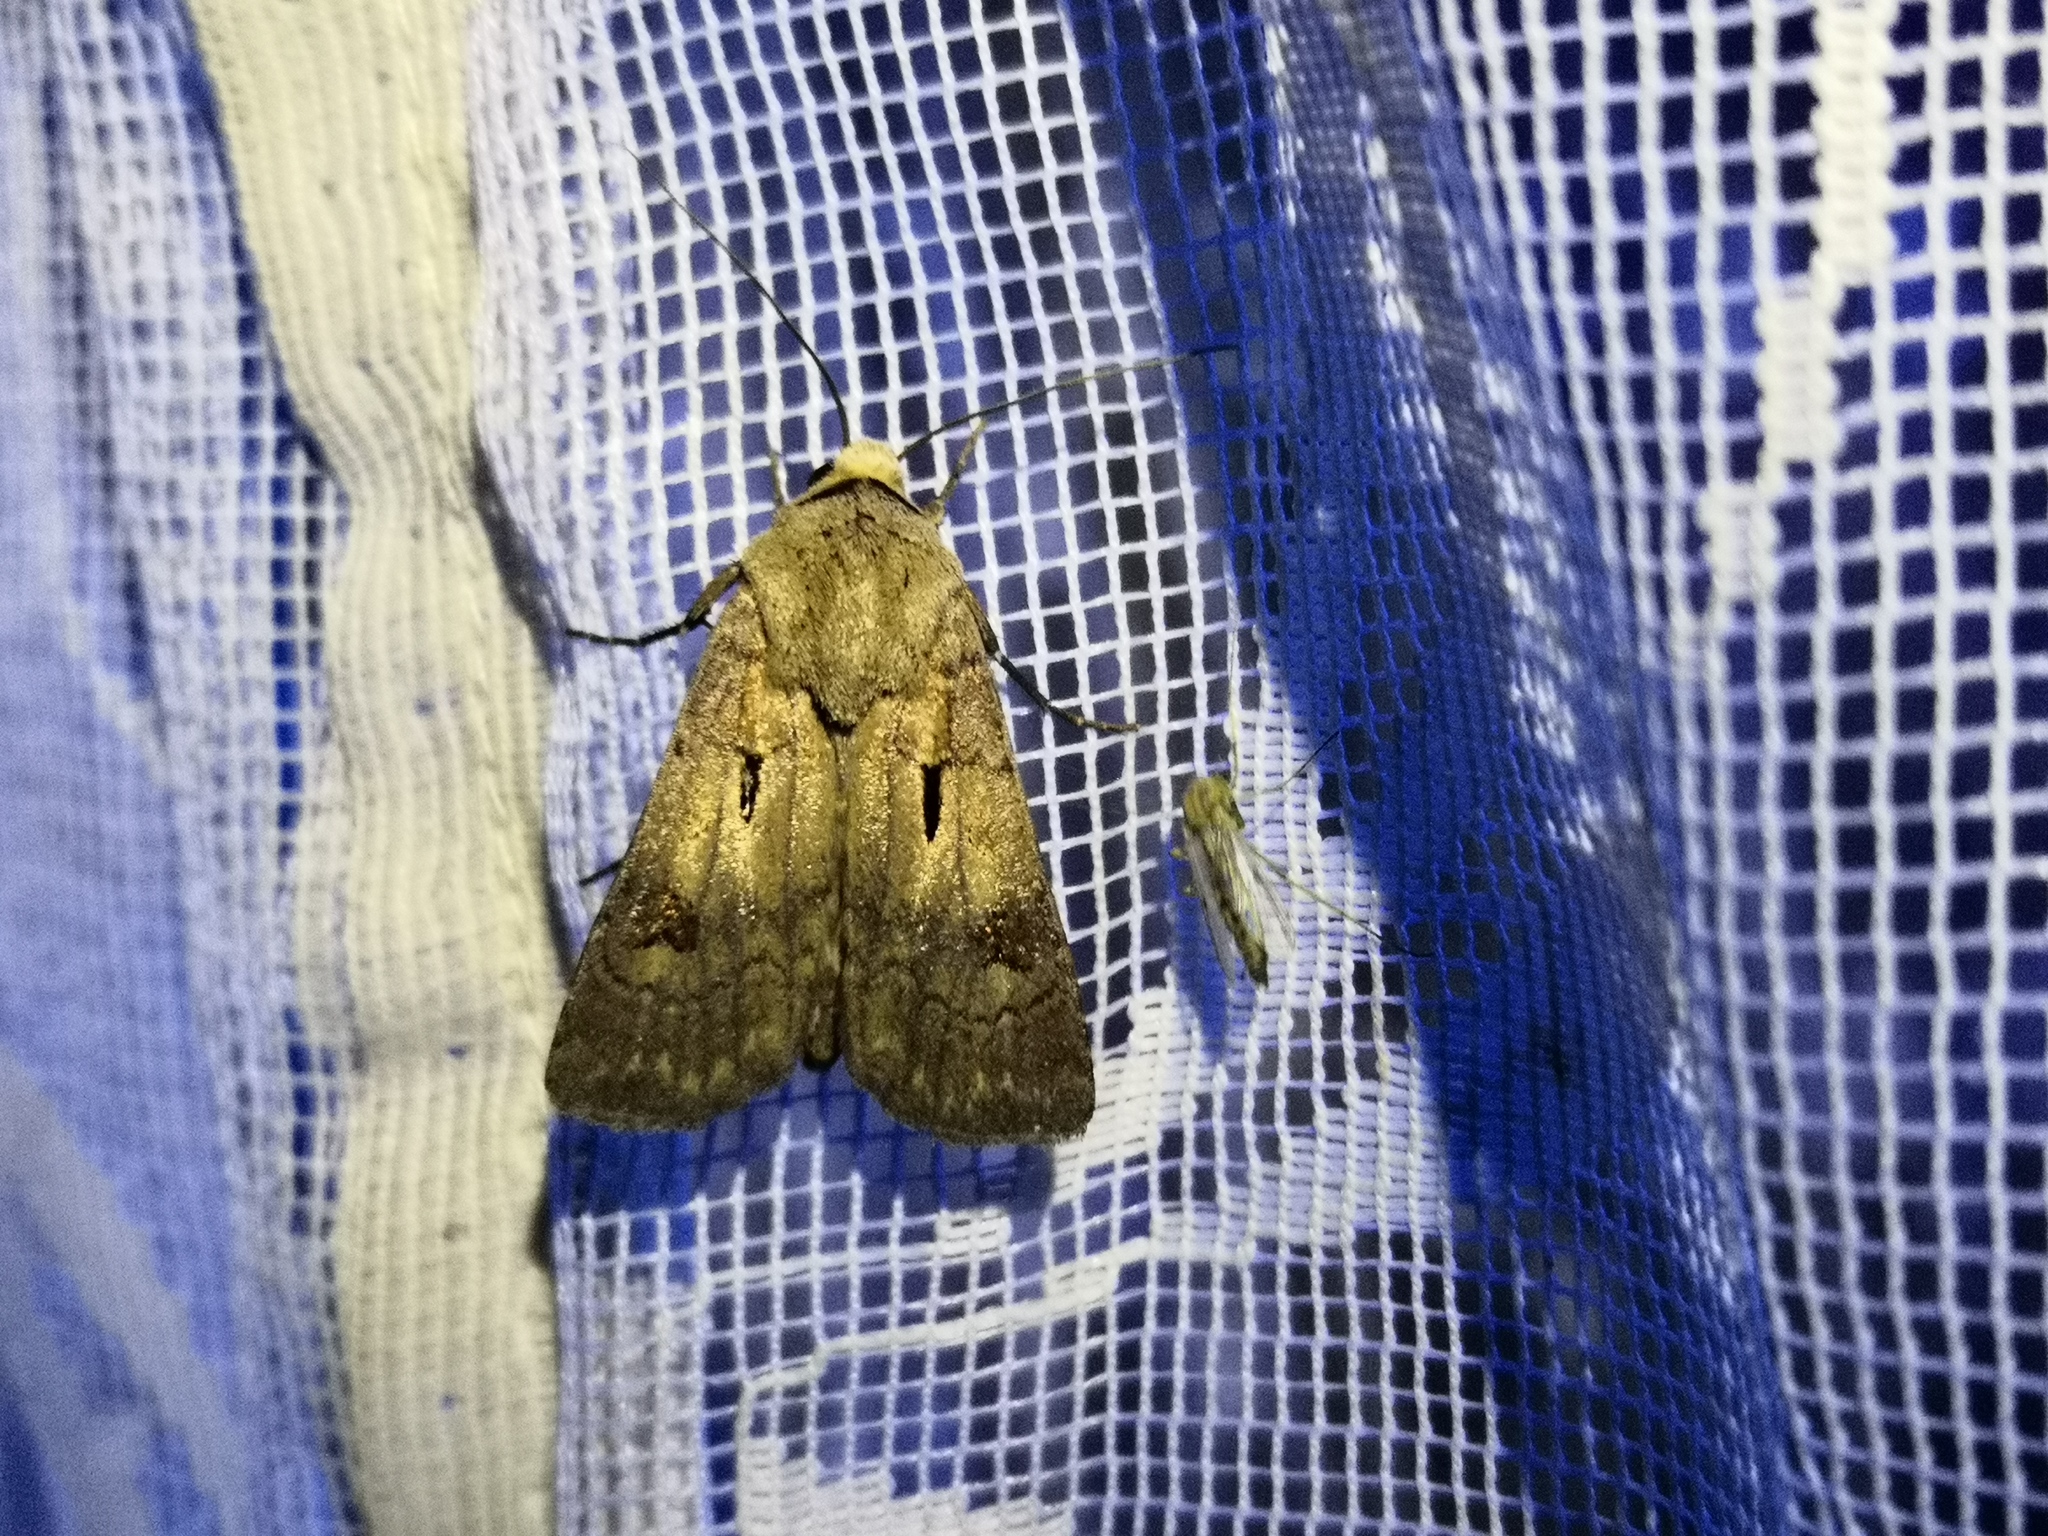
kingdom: Animalia
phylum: Arthropoda
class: Insecta
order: Lepidoptera
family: Noctuidae
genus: Agrotis
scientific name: Agrotis exclamationis
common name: Heart and dart
